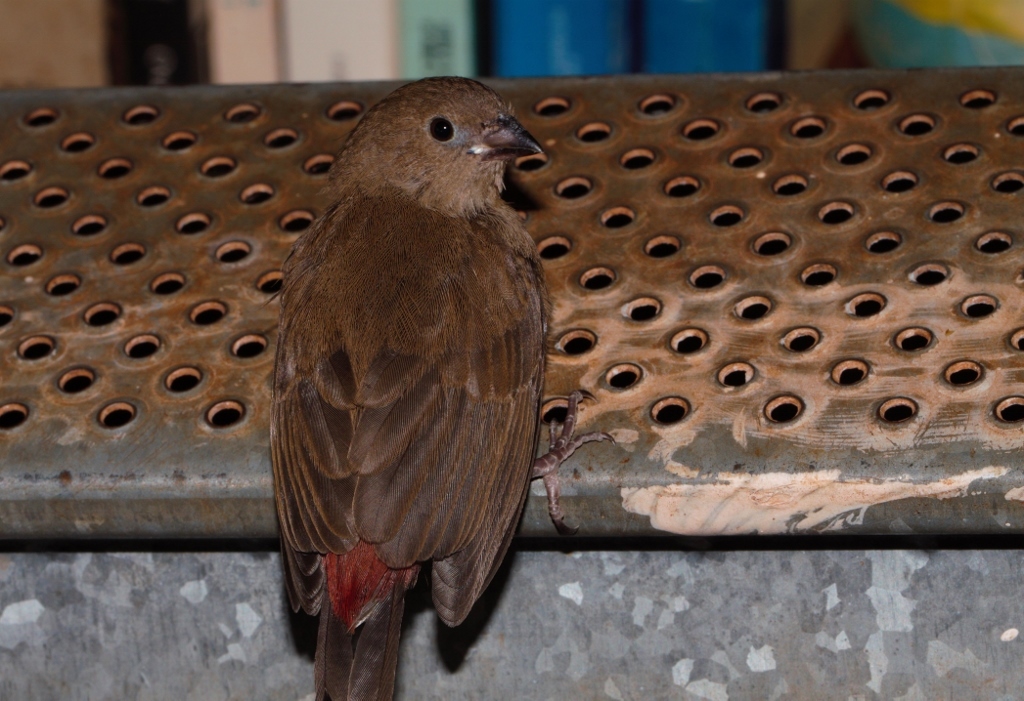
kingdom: Animalia
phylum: Chordata
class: Aves
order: Passeriformes
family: Estrildidae
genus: Lagonosticta
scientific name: Lagonosticta senegala
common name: Red-billed firefinch
